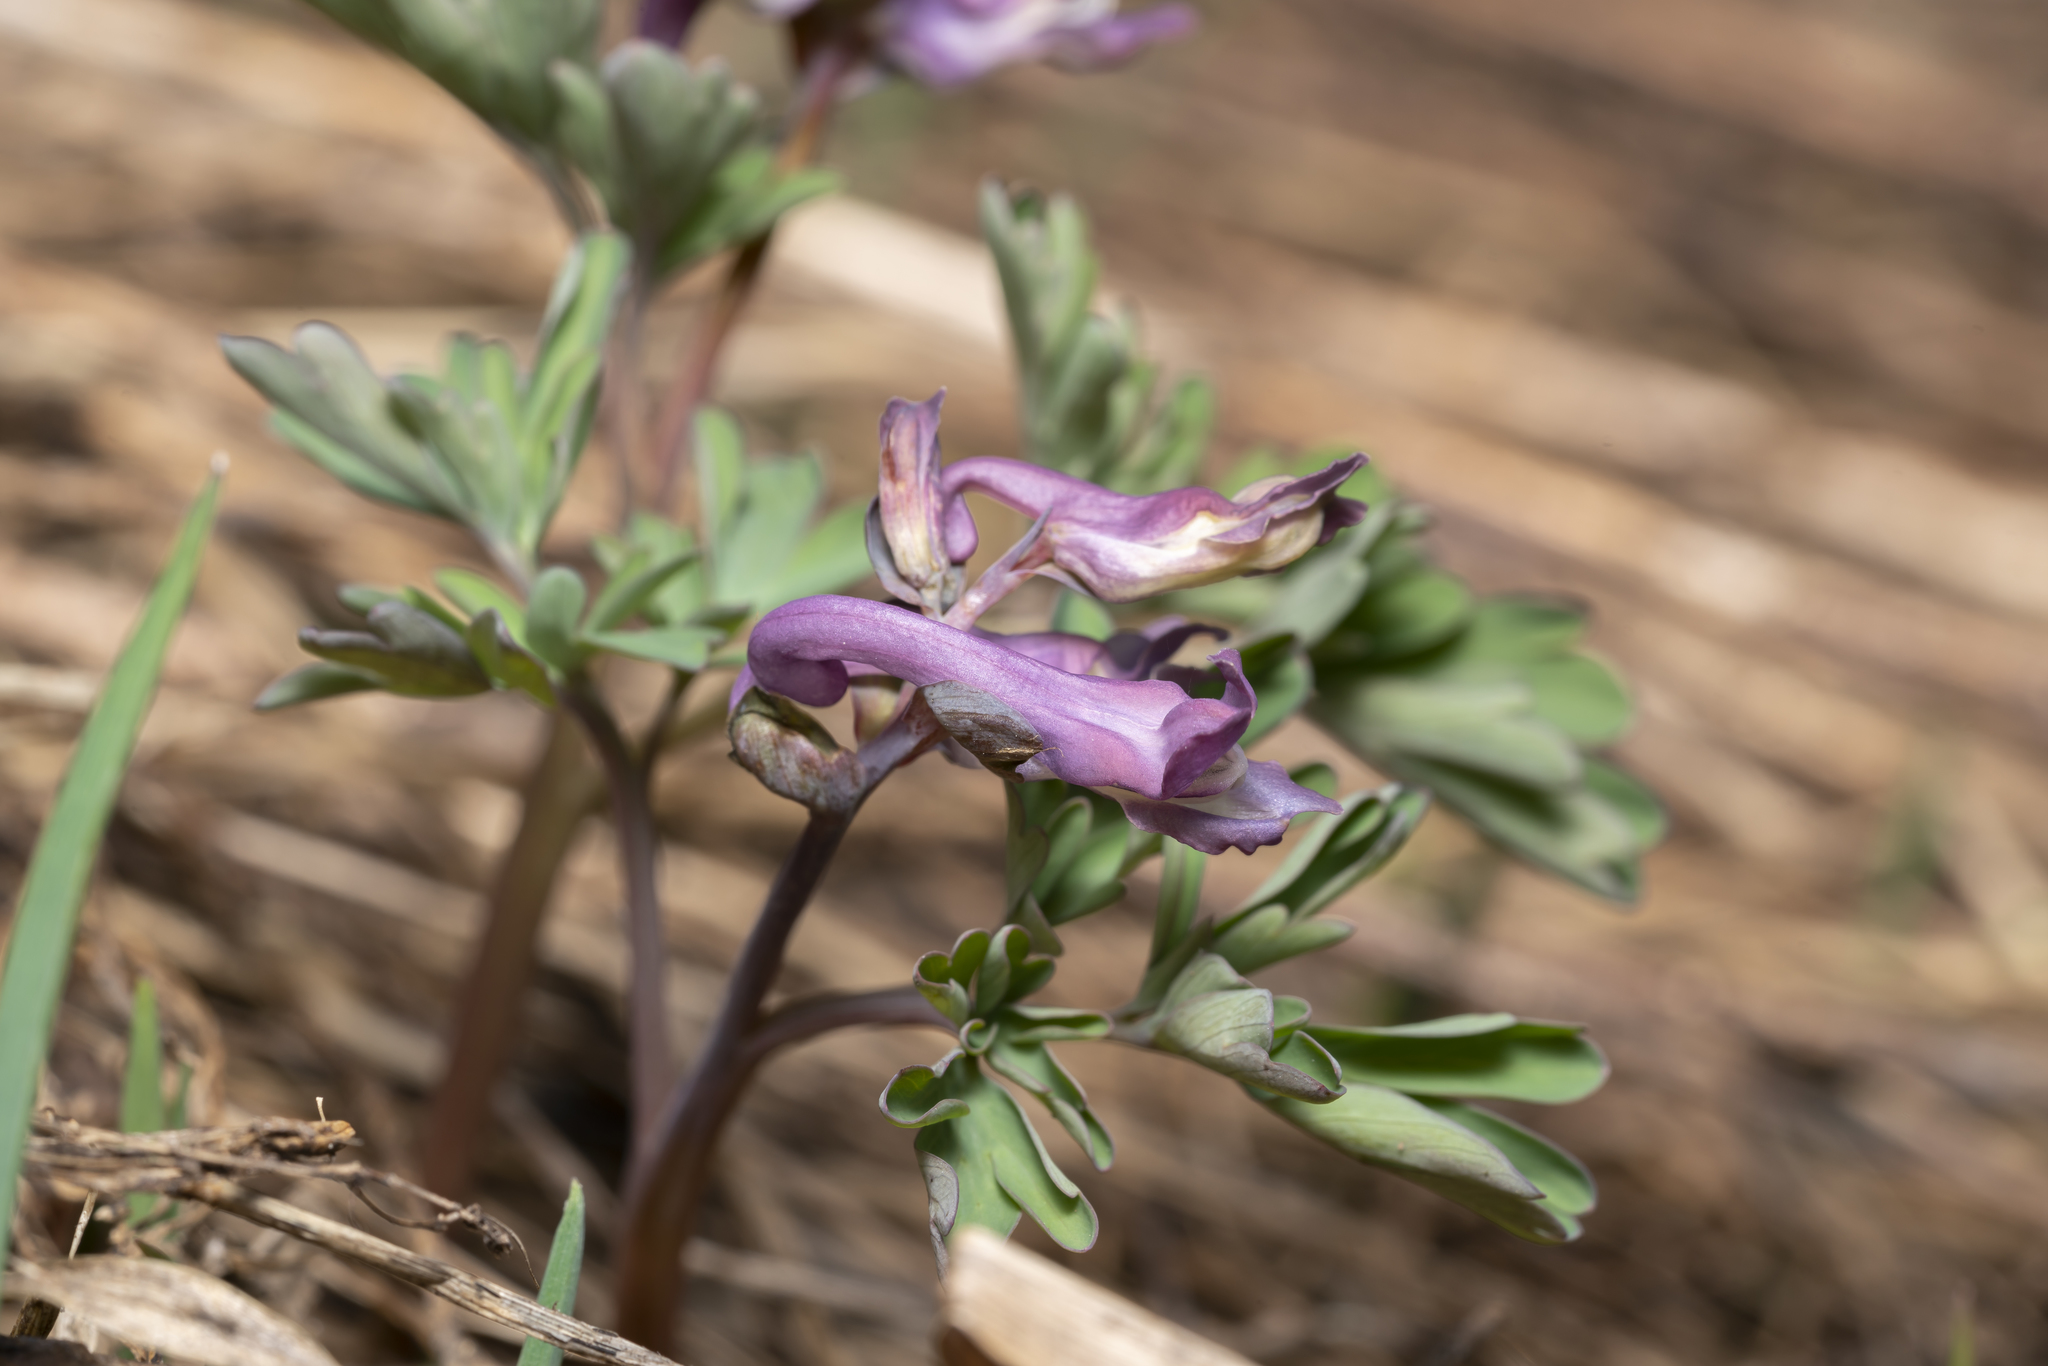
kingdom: Plantae
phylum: Tracheophyta
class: Magnoliopsida
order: Ranunculales
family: Papaveraceae
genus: Corydalis
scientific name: Corydalis cava
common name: Hollowroot
